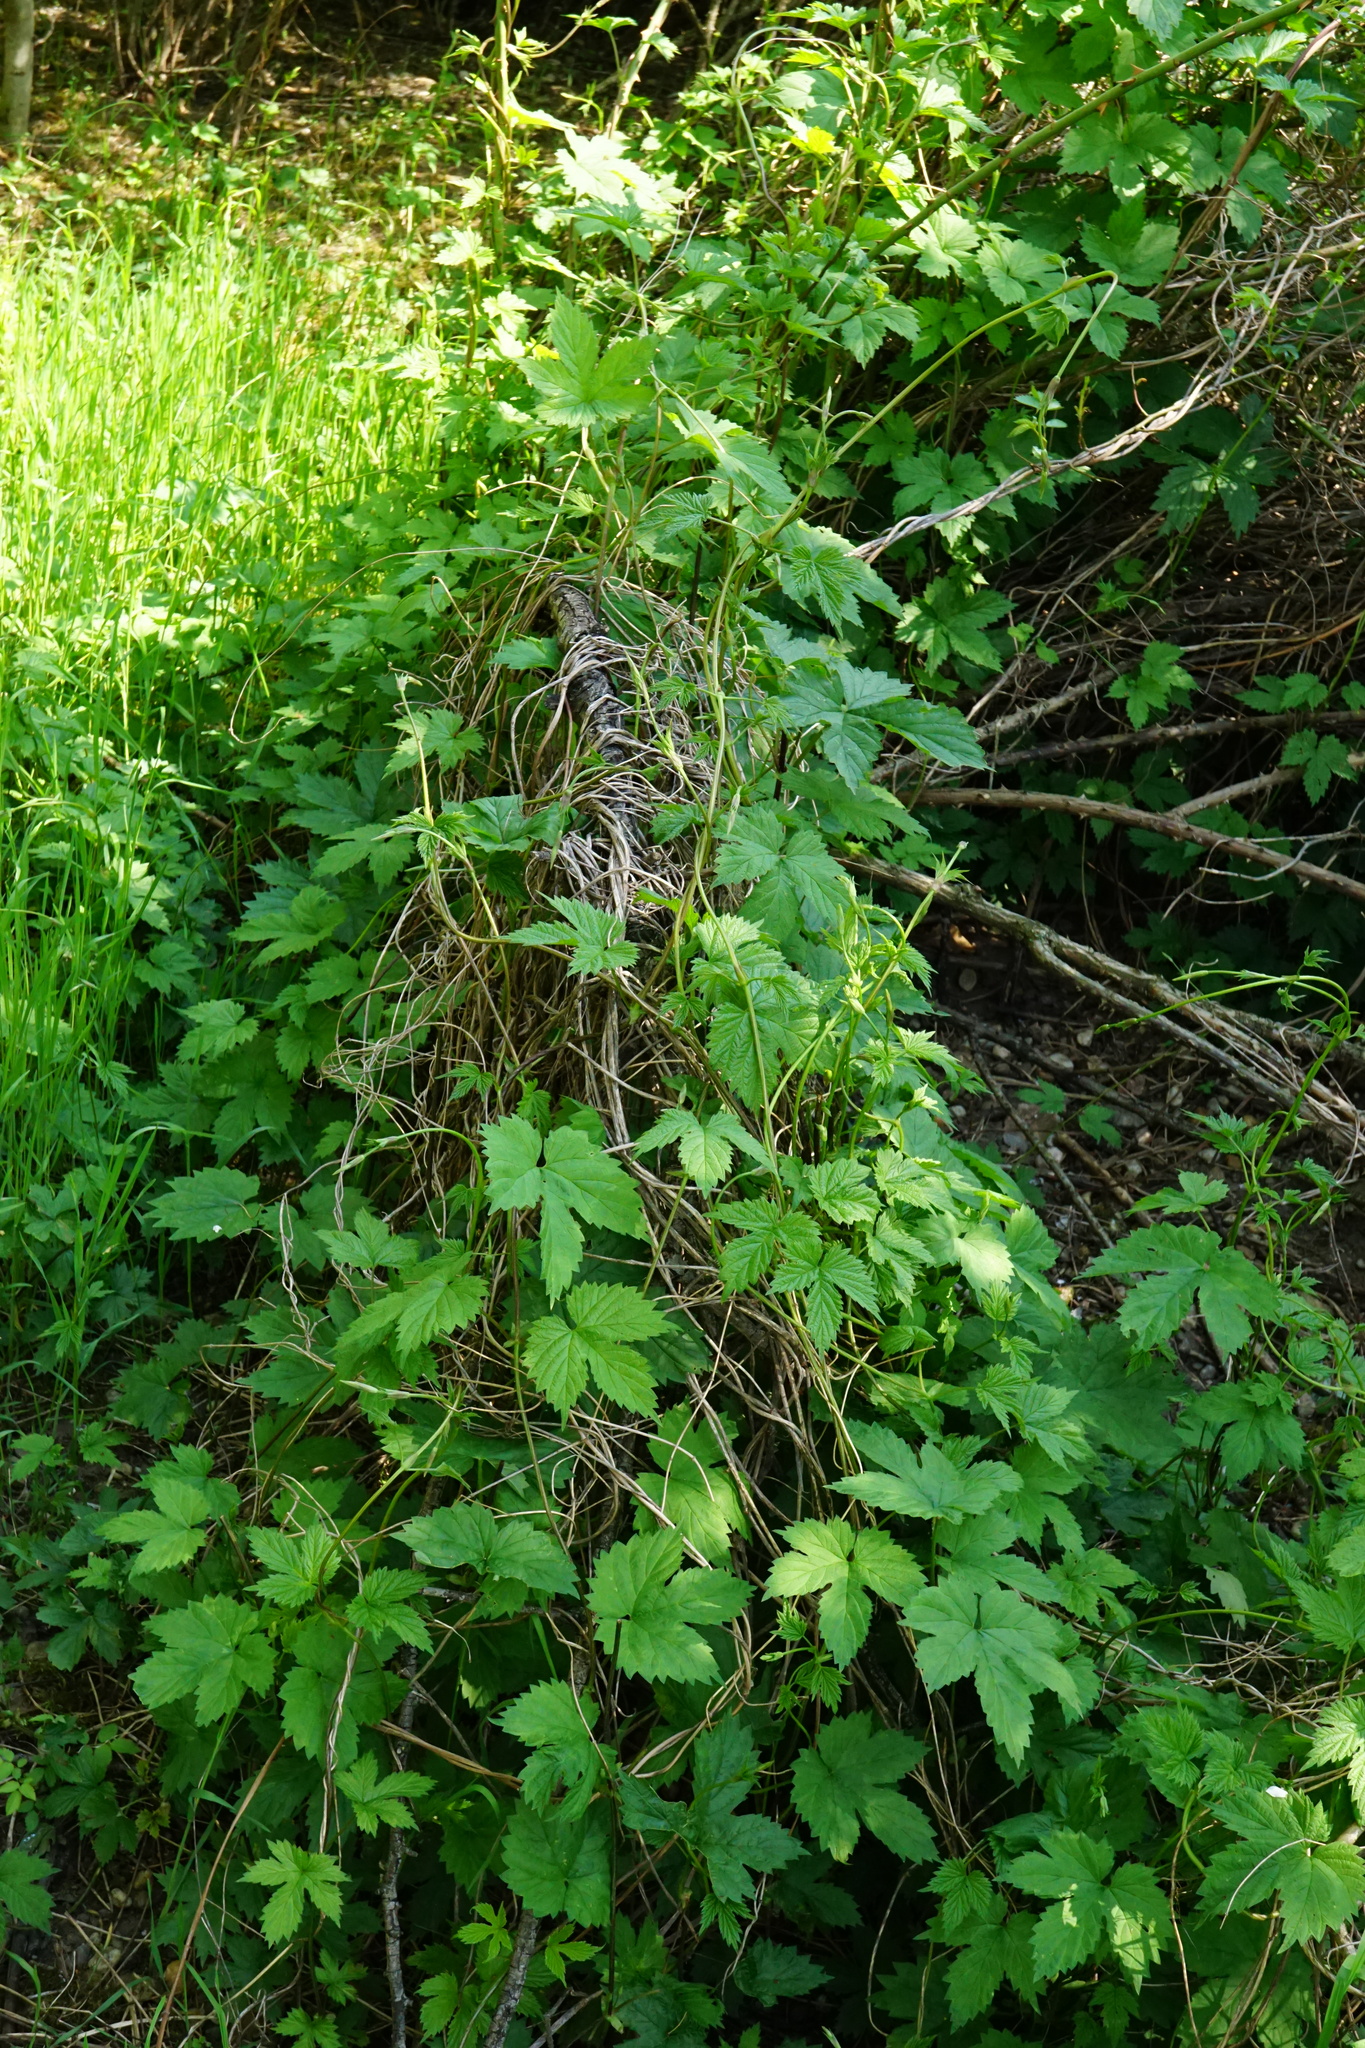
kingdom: Plantae
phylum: Tracheophyta
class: Magnoliopsida
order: Rosales
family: Cannabaceae
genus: Humulus
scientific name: Humulus lupulus
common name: Hop
